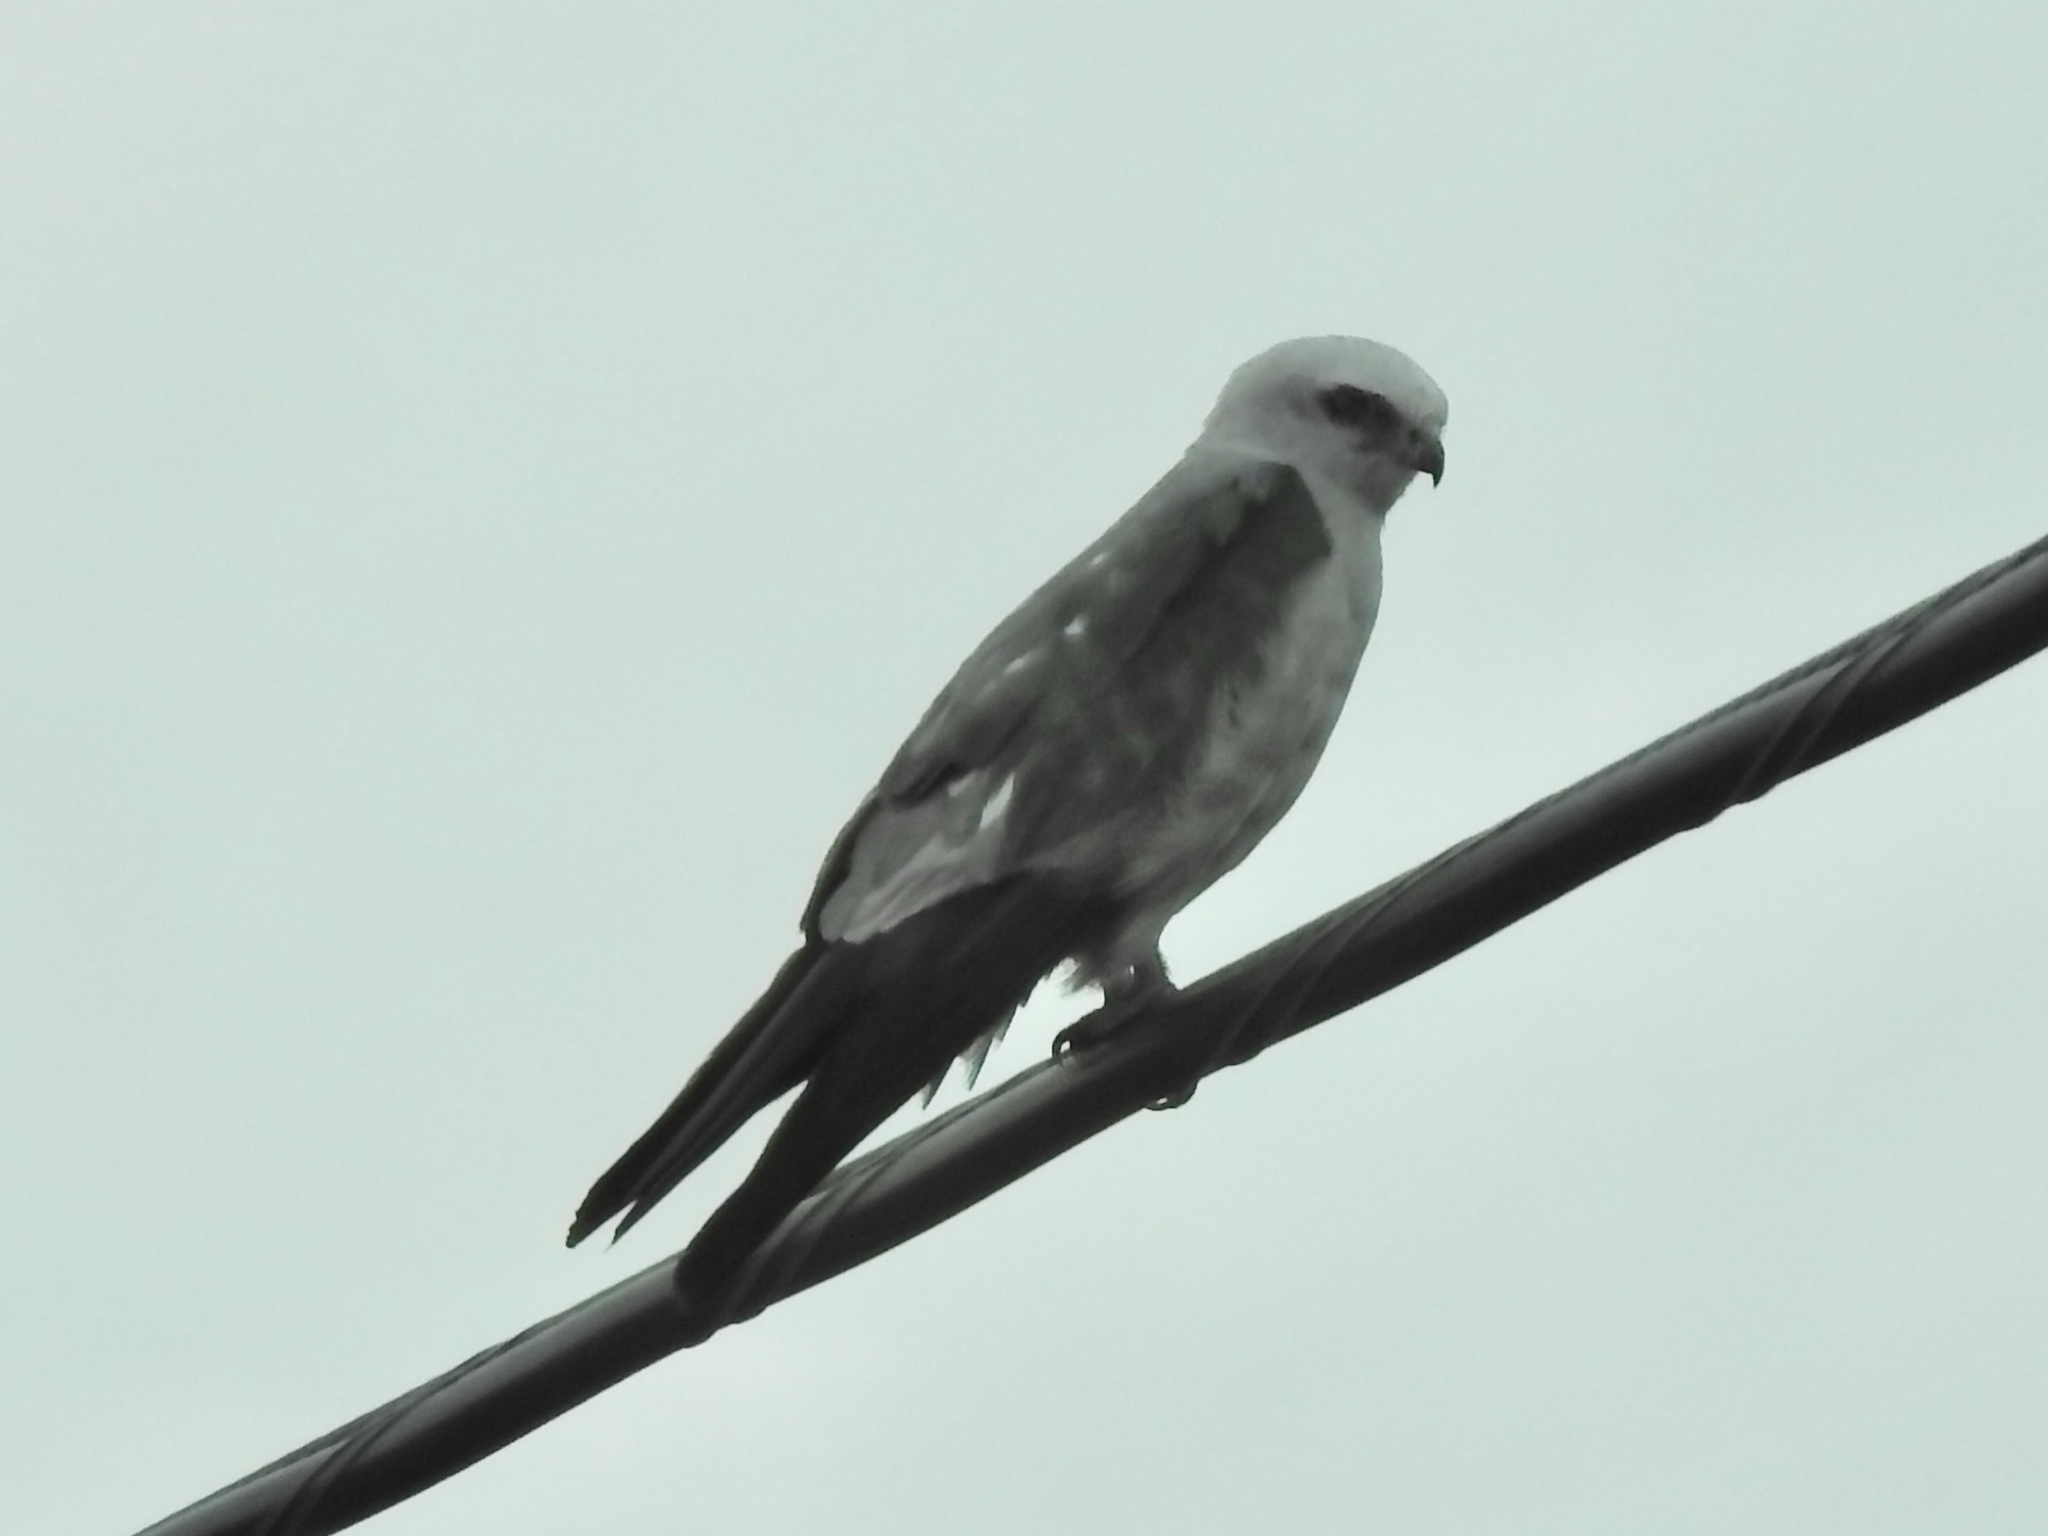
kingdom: Animalia
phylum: Chordata
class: Aves
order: Accipitriformes
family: Accipitridae
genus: Ictinia
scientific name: Ictinia mississippiensis
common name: Mississippi kite
